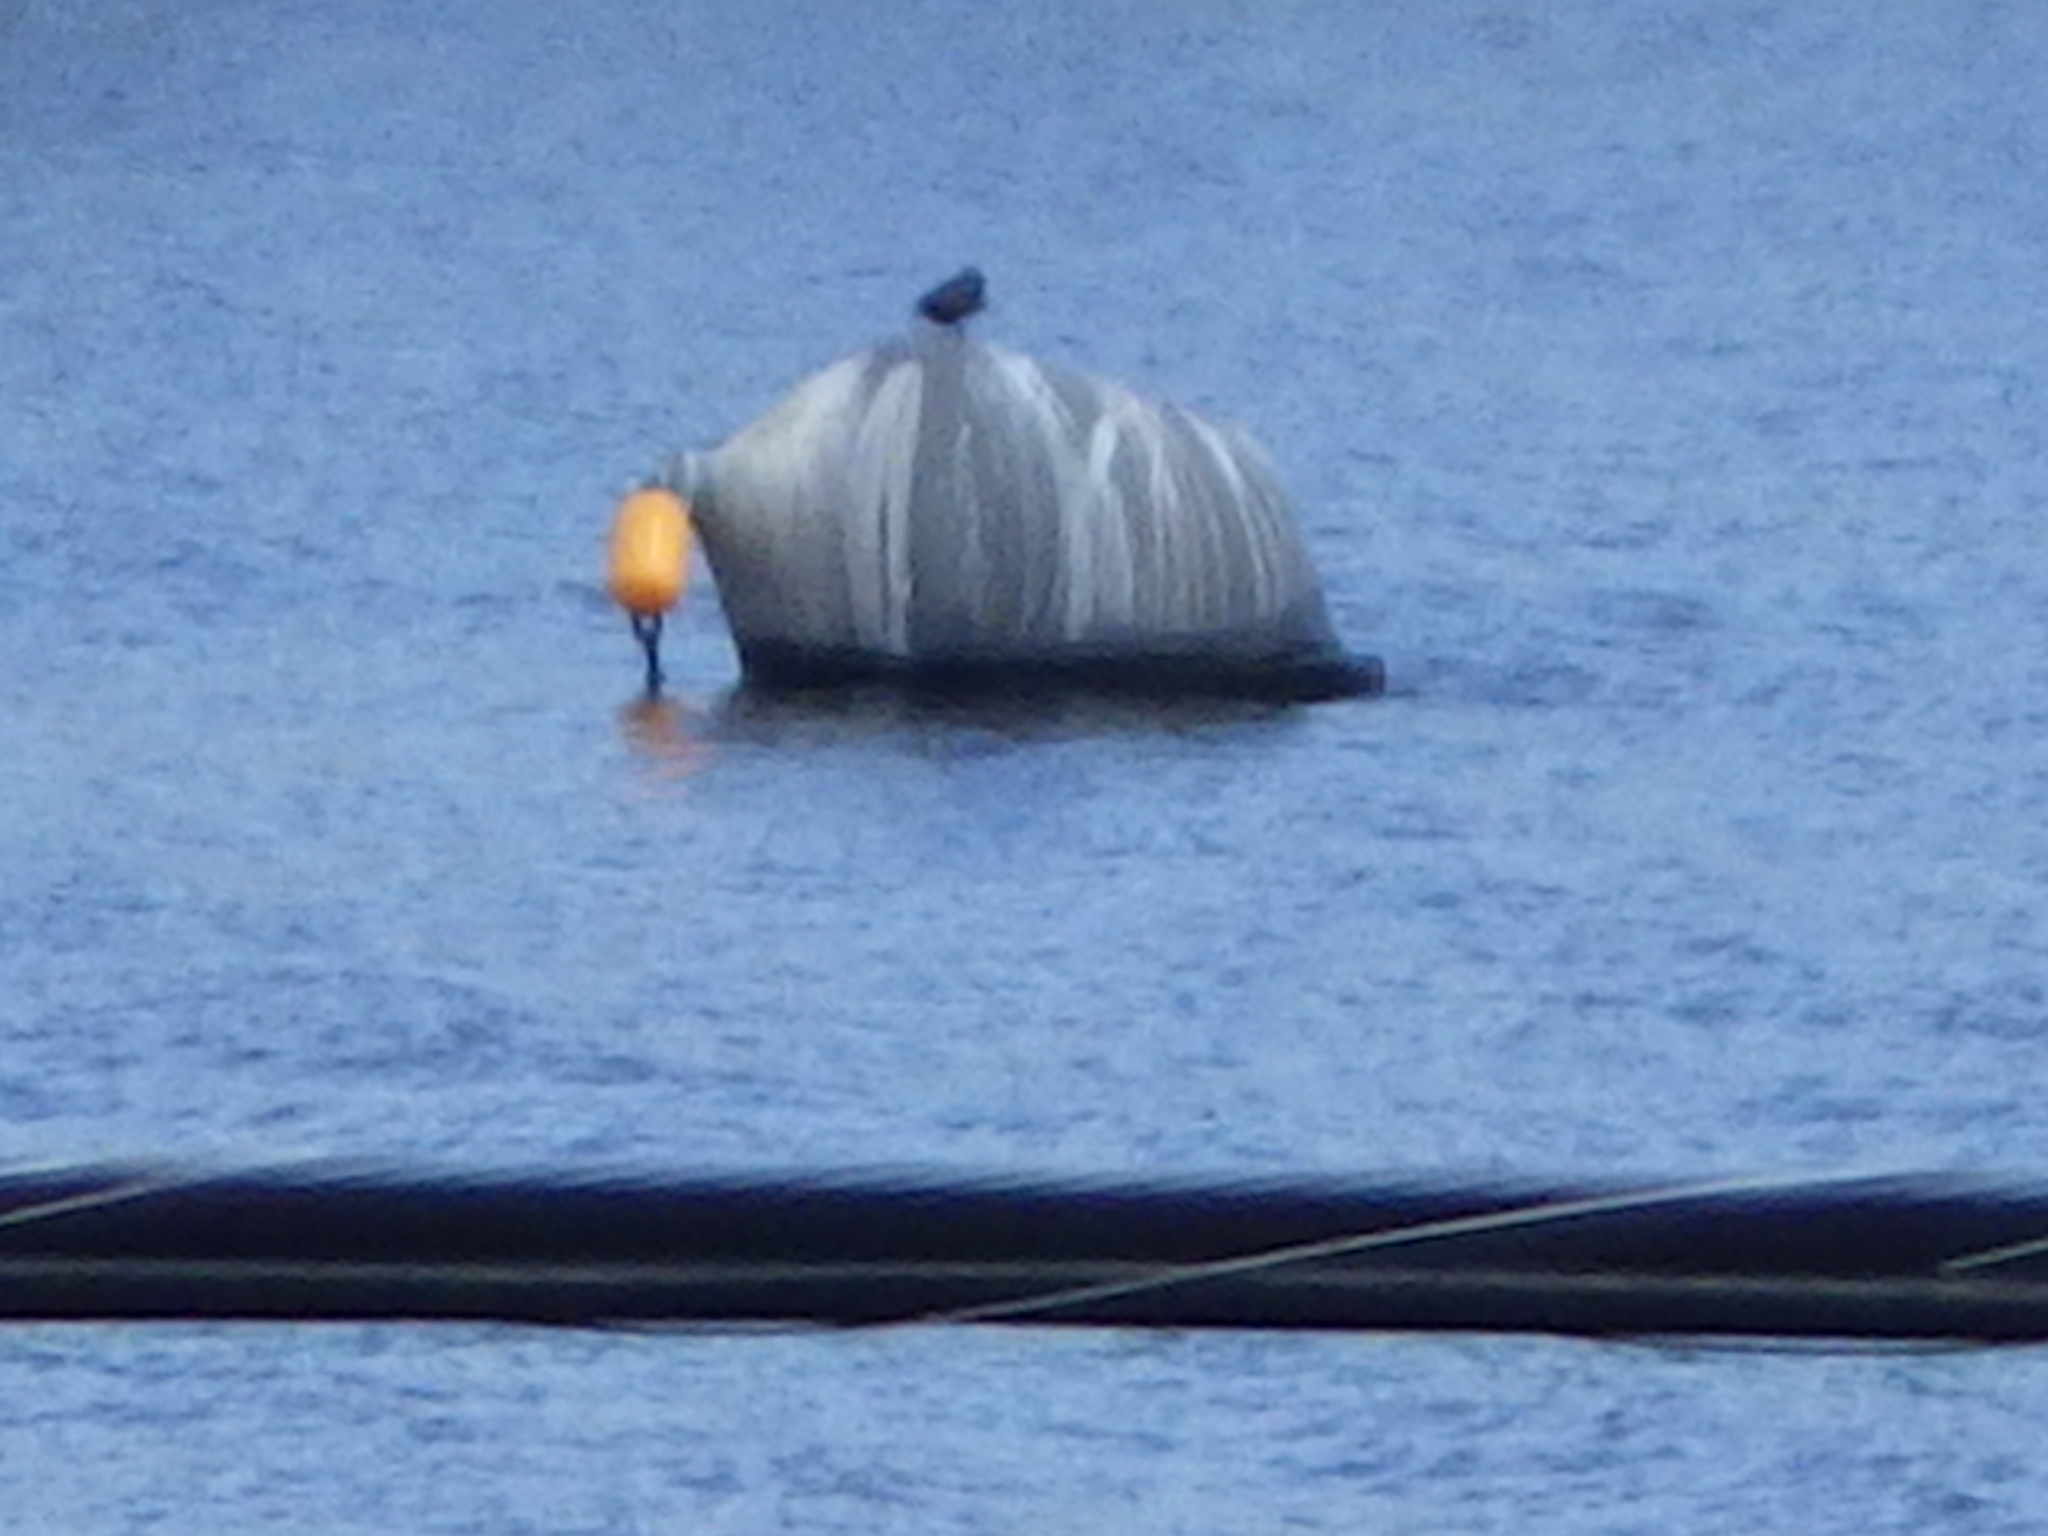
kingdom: Animalia
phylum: Chordata
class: Aves
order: Suliformes
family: Phalacrocoracidae
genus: Phalacrocorax
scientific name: Phalacrocorax auritus
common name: Double-crested cormorant
